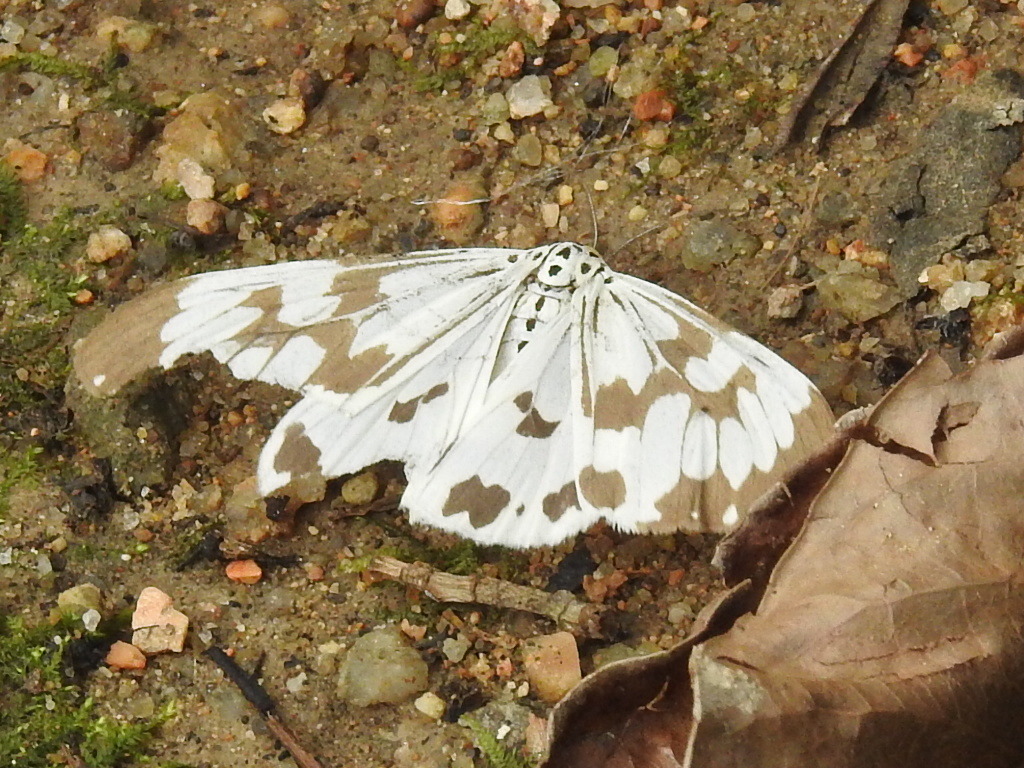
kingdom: Animalia
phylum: Arthropoda
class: Insecta
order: Lepidoptera
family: Erebidae
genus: Nyctemera
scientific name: Nyctemera adversata
